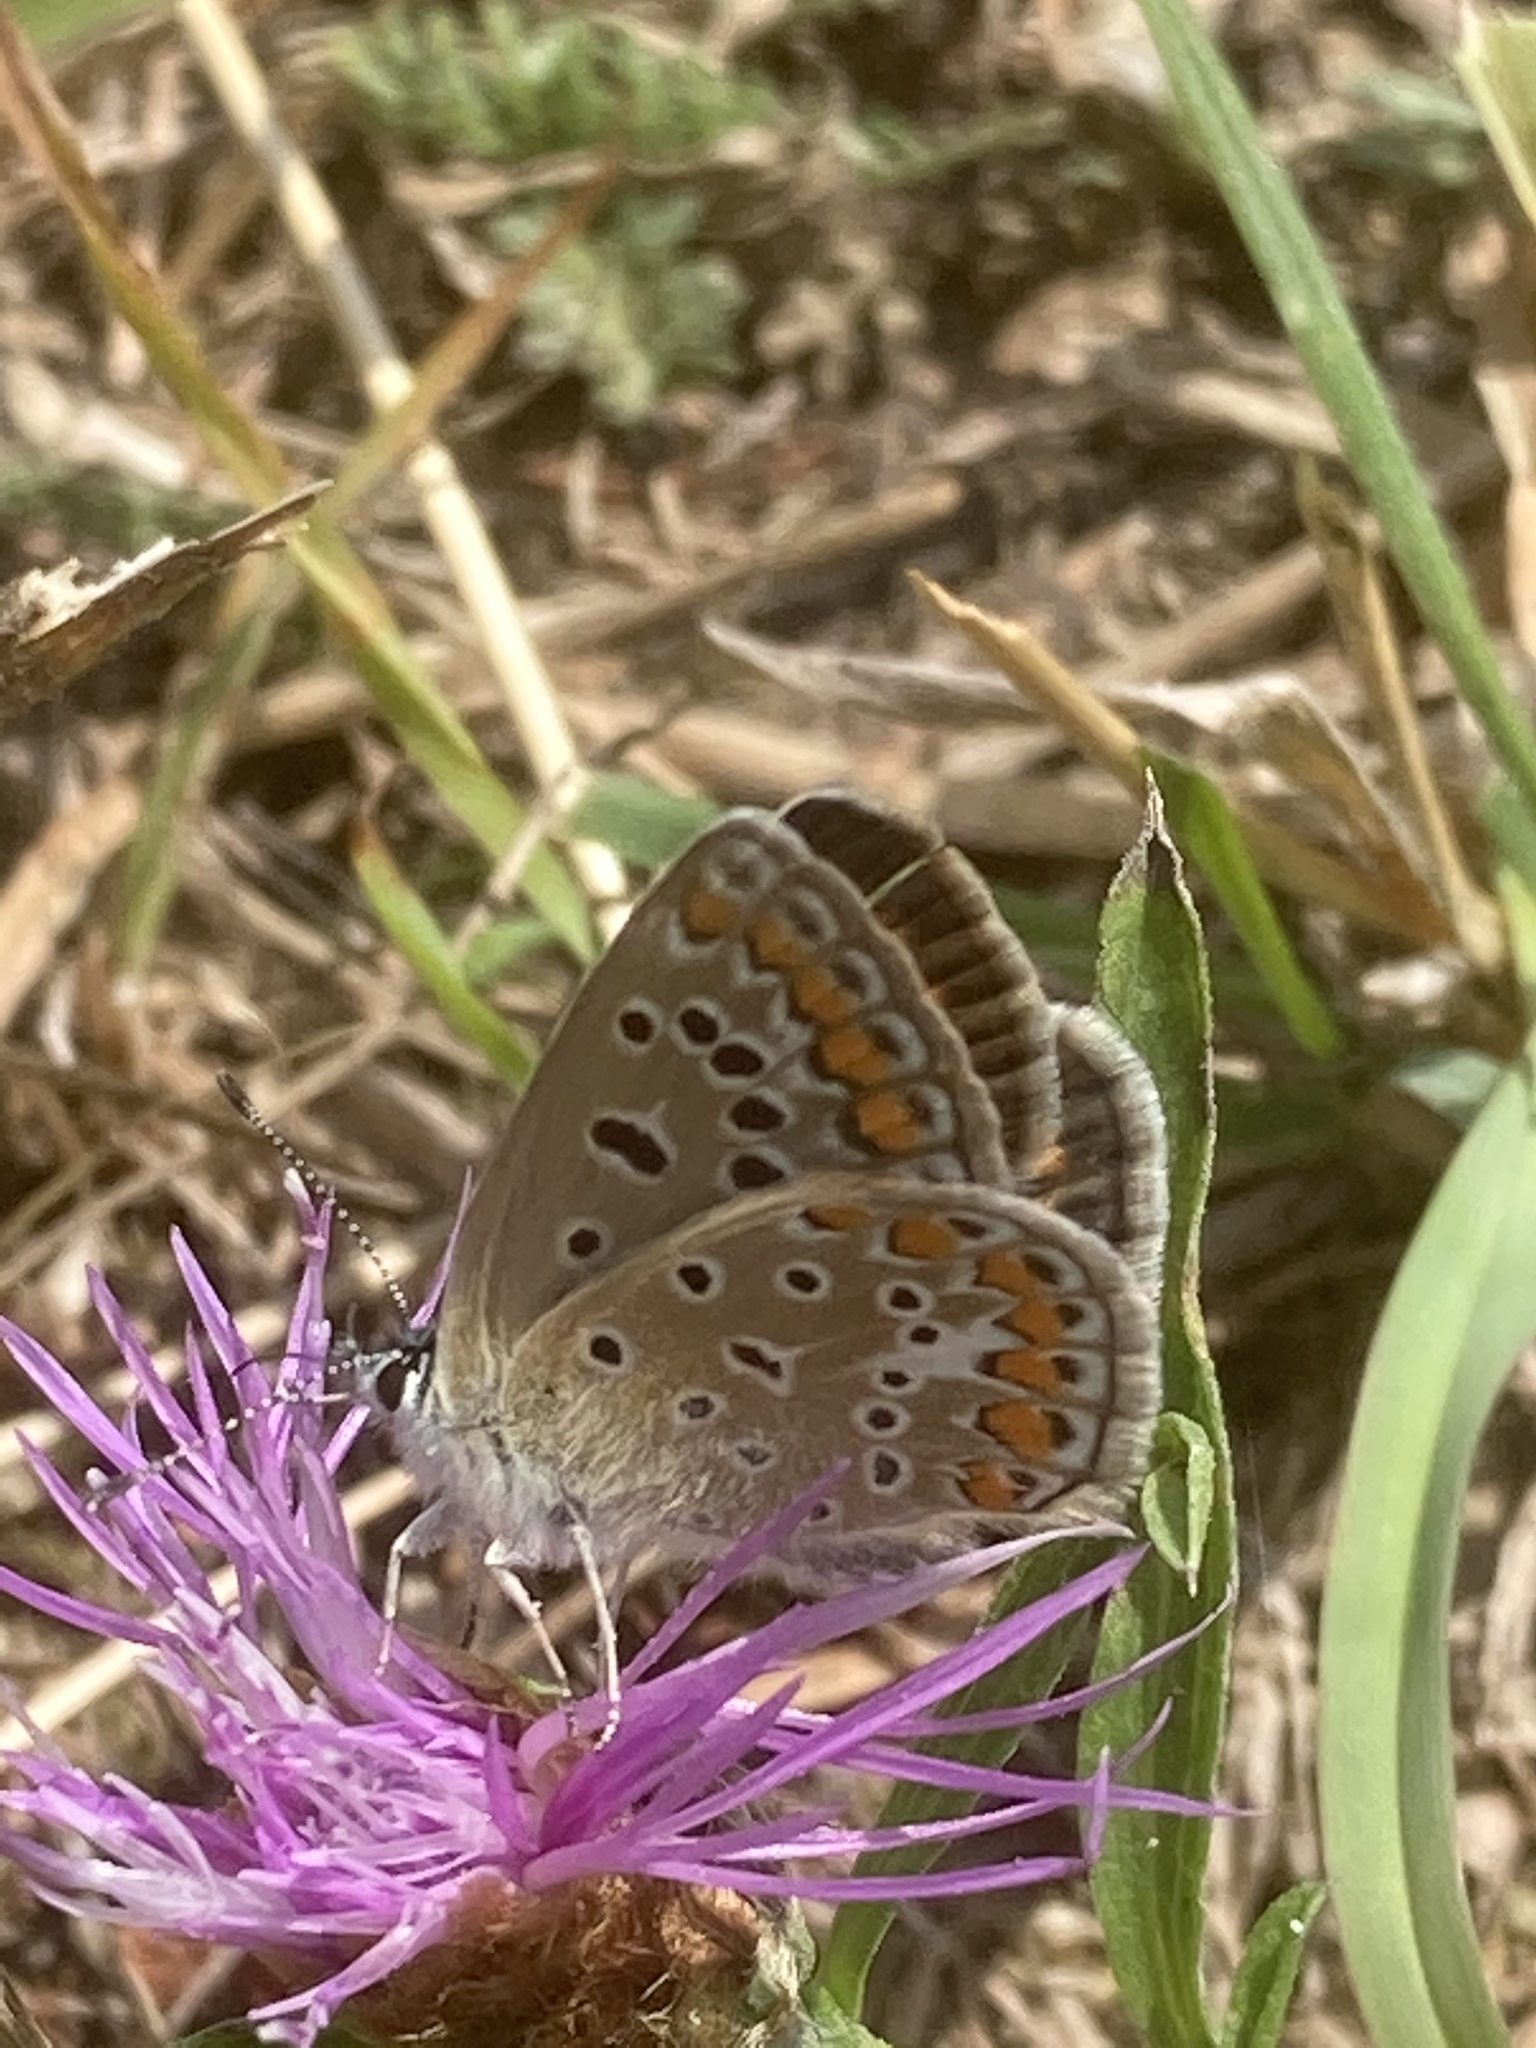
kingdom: Animalia
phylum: Arthropoda
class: Insecta
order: Lepidoptera
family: Lycaenidae
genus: Polyommatus
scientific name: Polyommatus icarus
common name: Common blue
